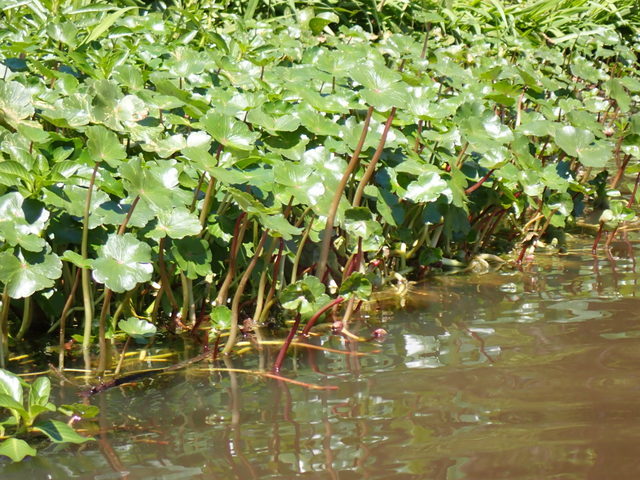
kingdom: Plantae
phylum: Tracheophyta
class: Magnoliopsida
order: Apiales
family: Araliaceae
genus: Hydrocotyle
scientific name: Hydrocotyle ranunculoides
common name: Floating pennywort
